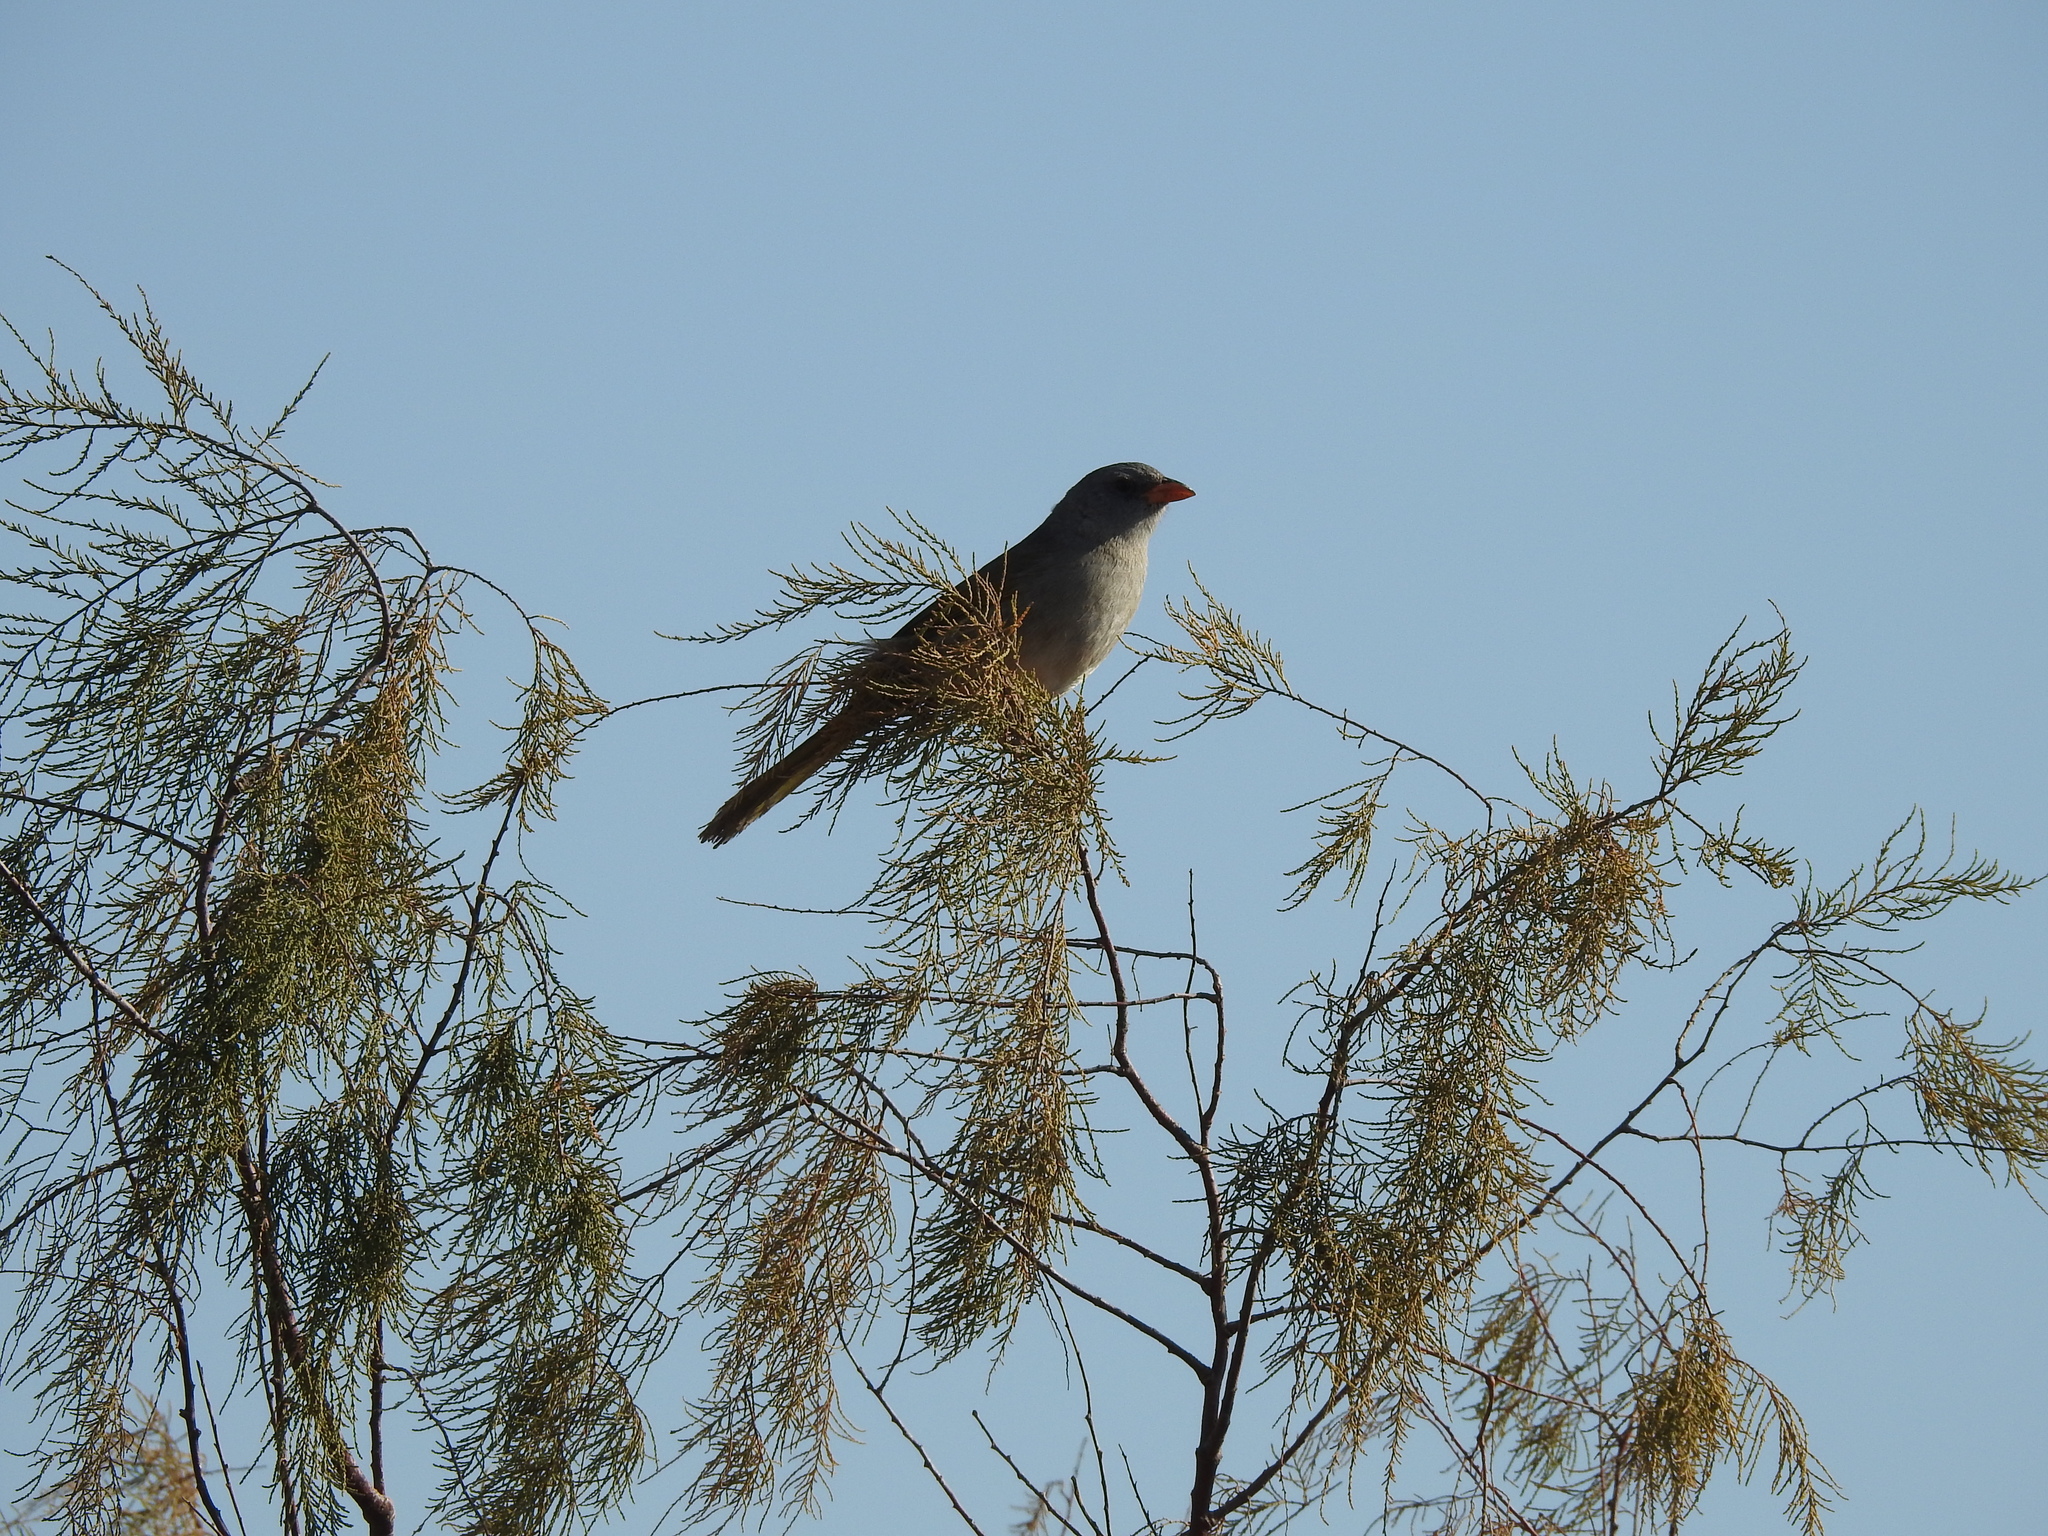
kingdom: Animalia
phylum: Chordata
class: Aves
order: Passeriformes
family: Thraupidae
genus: Embernagra
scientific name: Embernagra platensis
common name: Pampa finch
